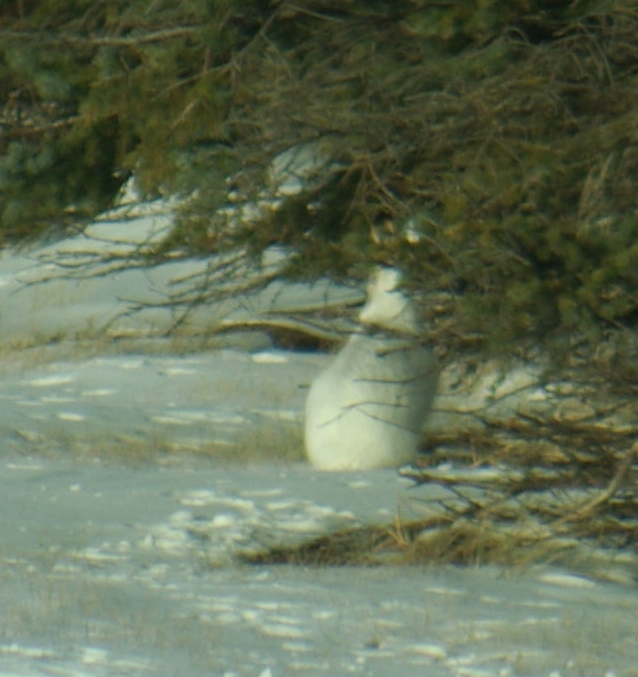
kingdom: Animalia
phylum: Chordata
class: Mammalia
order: Lagomorpha
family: Leporidae
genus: Lepus
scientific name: Lepus americanus
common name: Snowshoe hare
